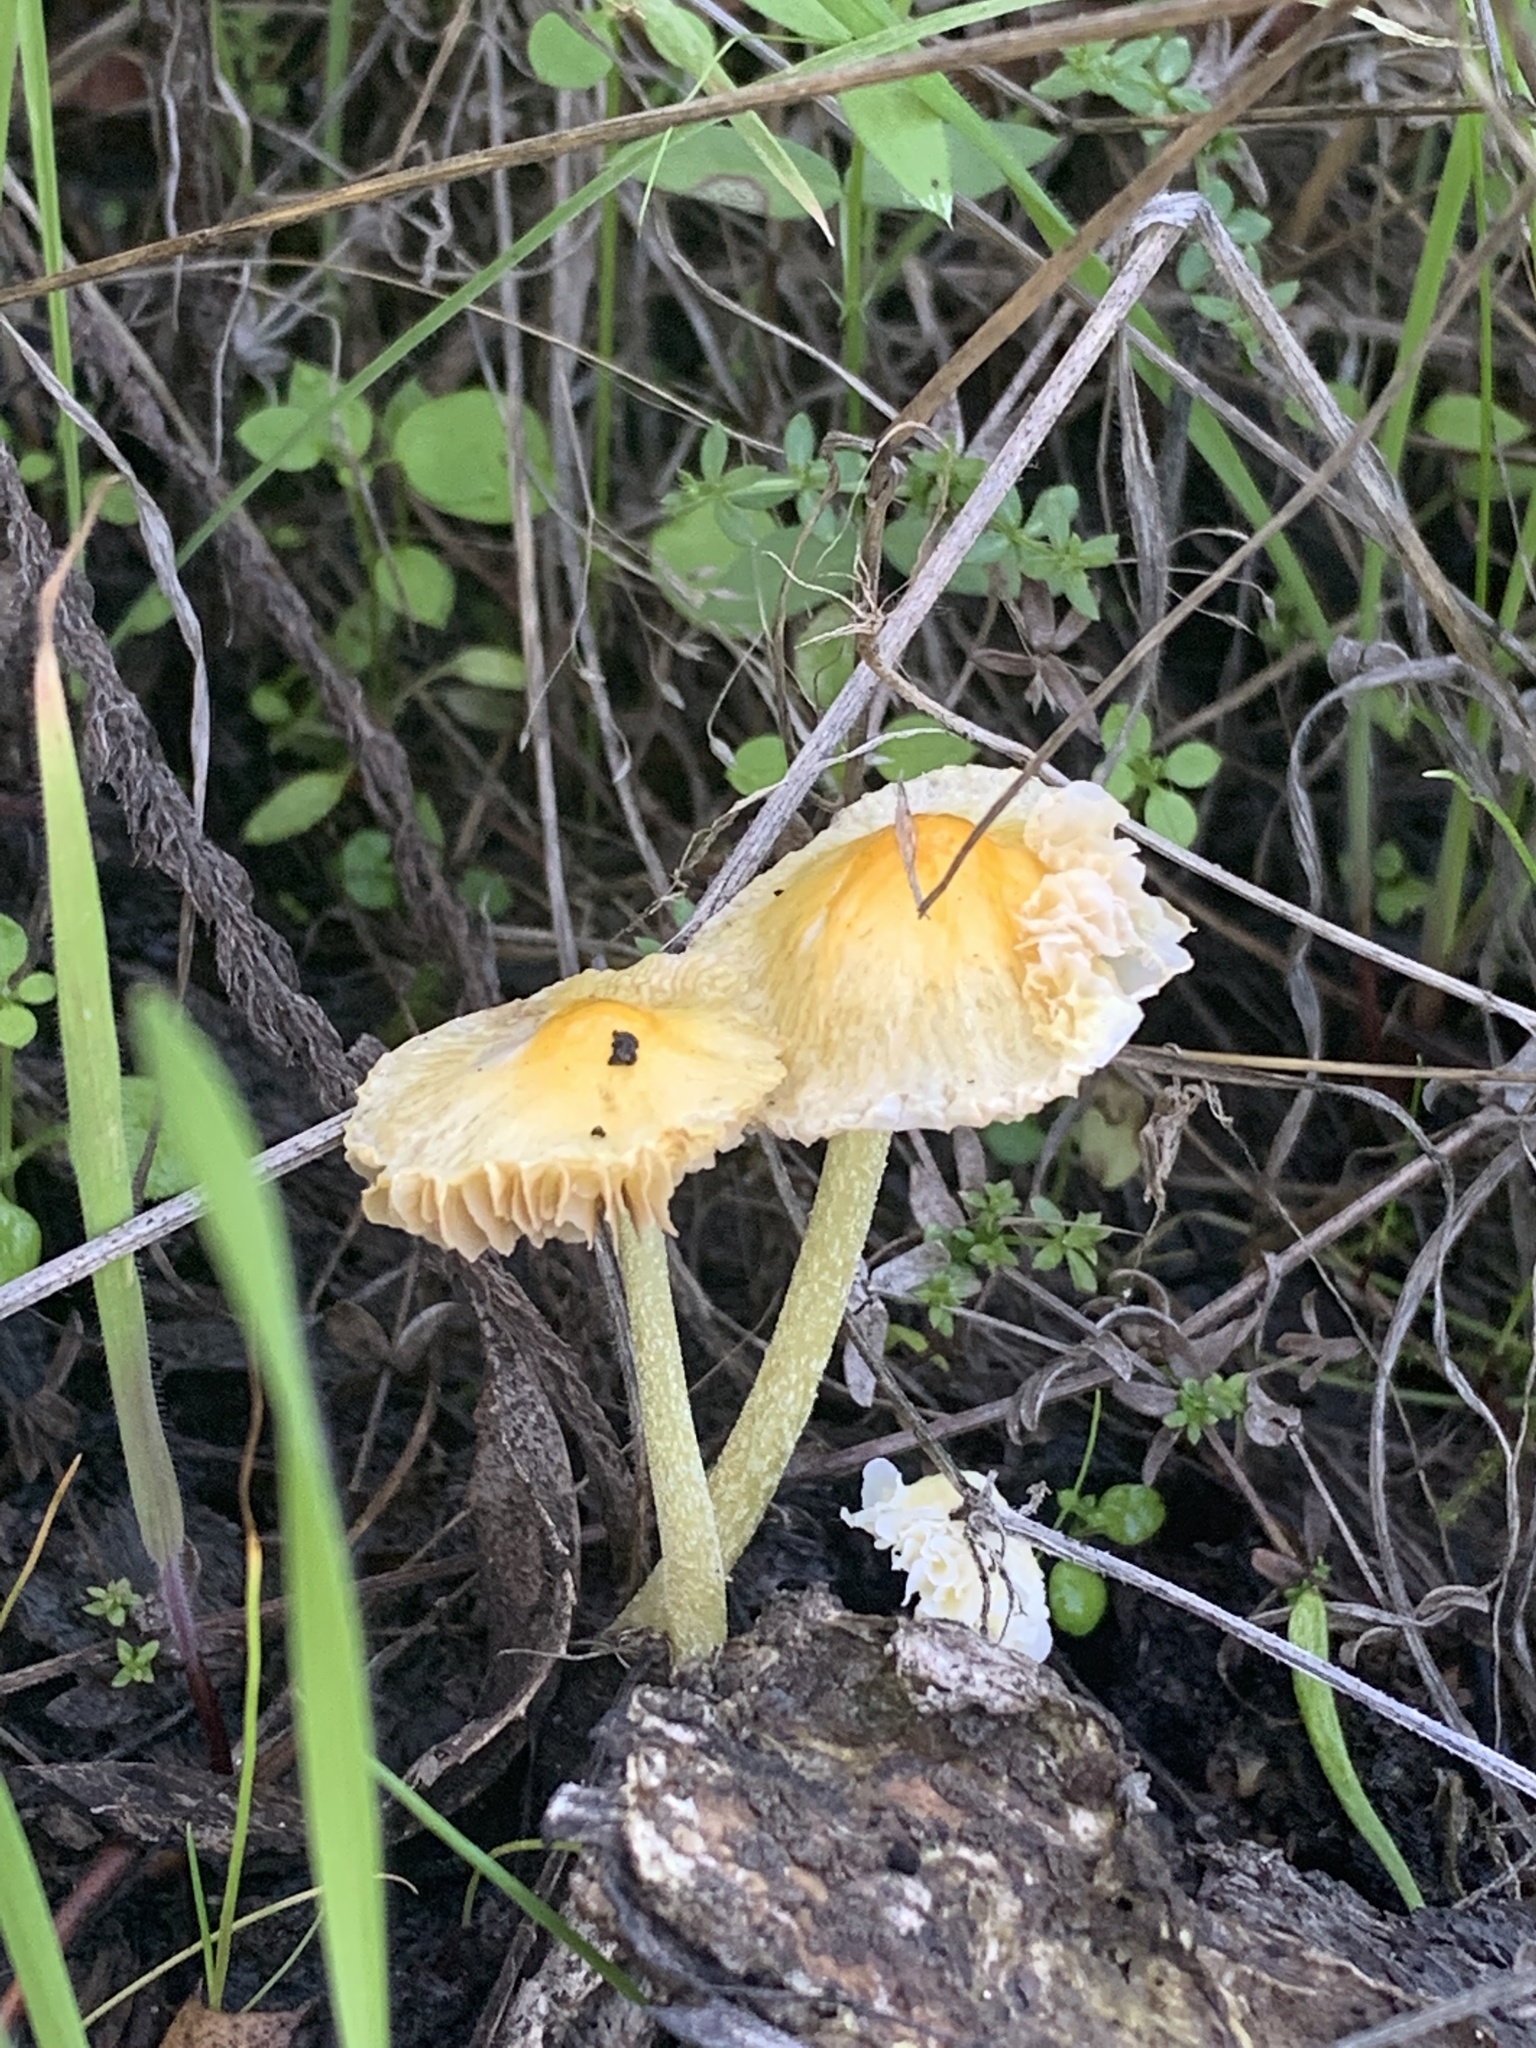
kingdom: Fungi
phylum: Basidiomycota
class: Agaricomycetes
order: Agaricales
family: Bolbitiaceae
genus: Bolbitius
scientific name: Bolbitius titubans
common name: Yellow fieldcap
